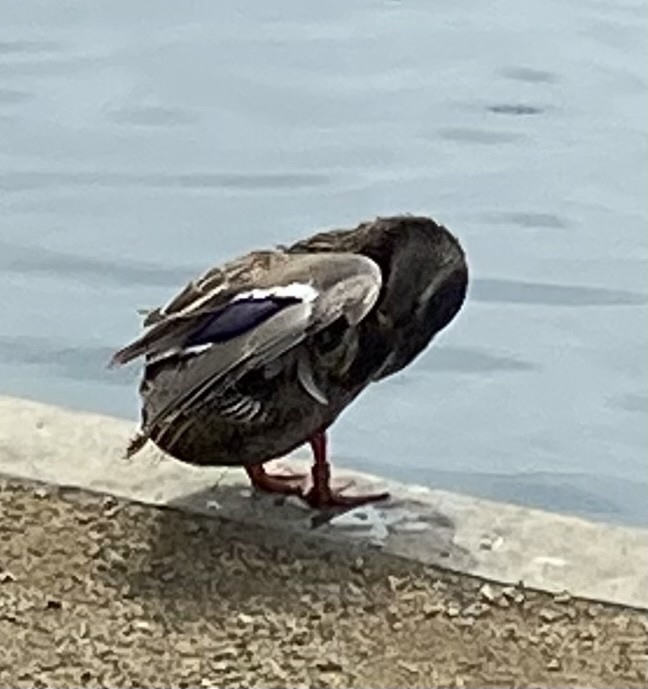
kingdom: Animalia
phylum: Chordata
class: Aves
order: Anseriformes
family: Anatidae
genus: Anas
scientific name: Anas platyrhynchos
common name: Mallard
